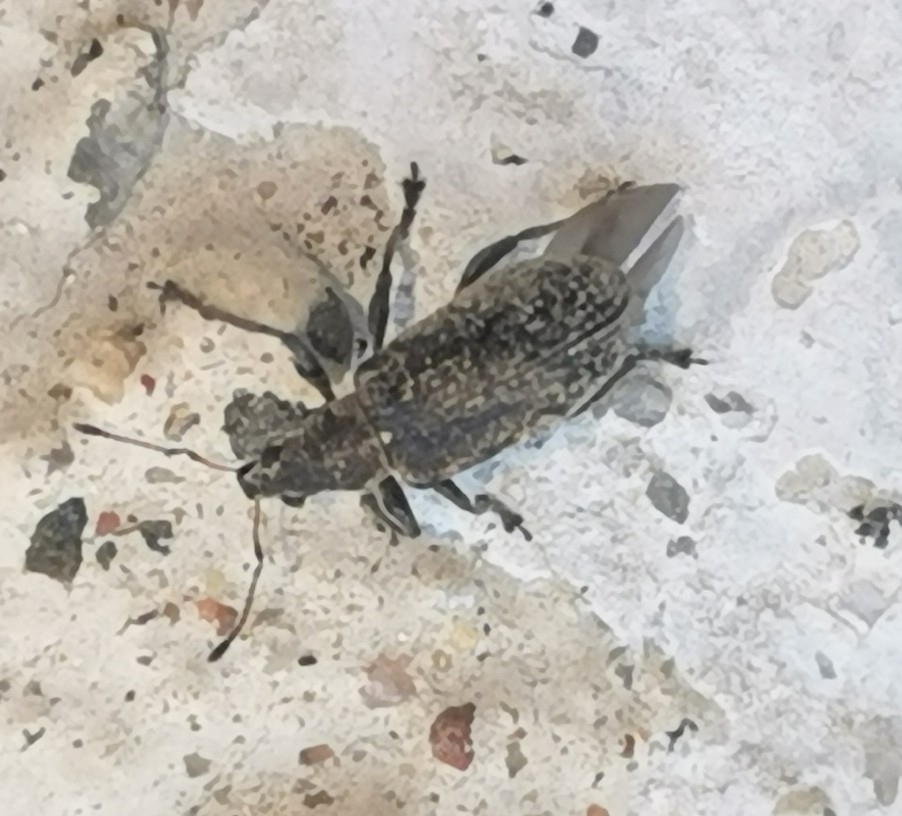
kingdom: Animalia
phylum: Arthropoda
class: Insecta
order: Coleoptera
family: Curculionidae
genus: Polydrusus
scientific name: Polydrusus pilosus
